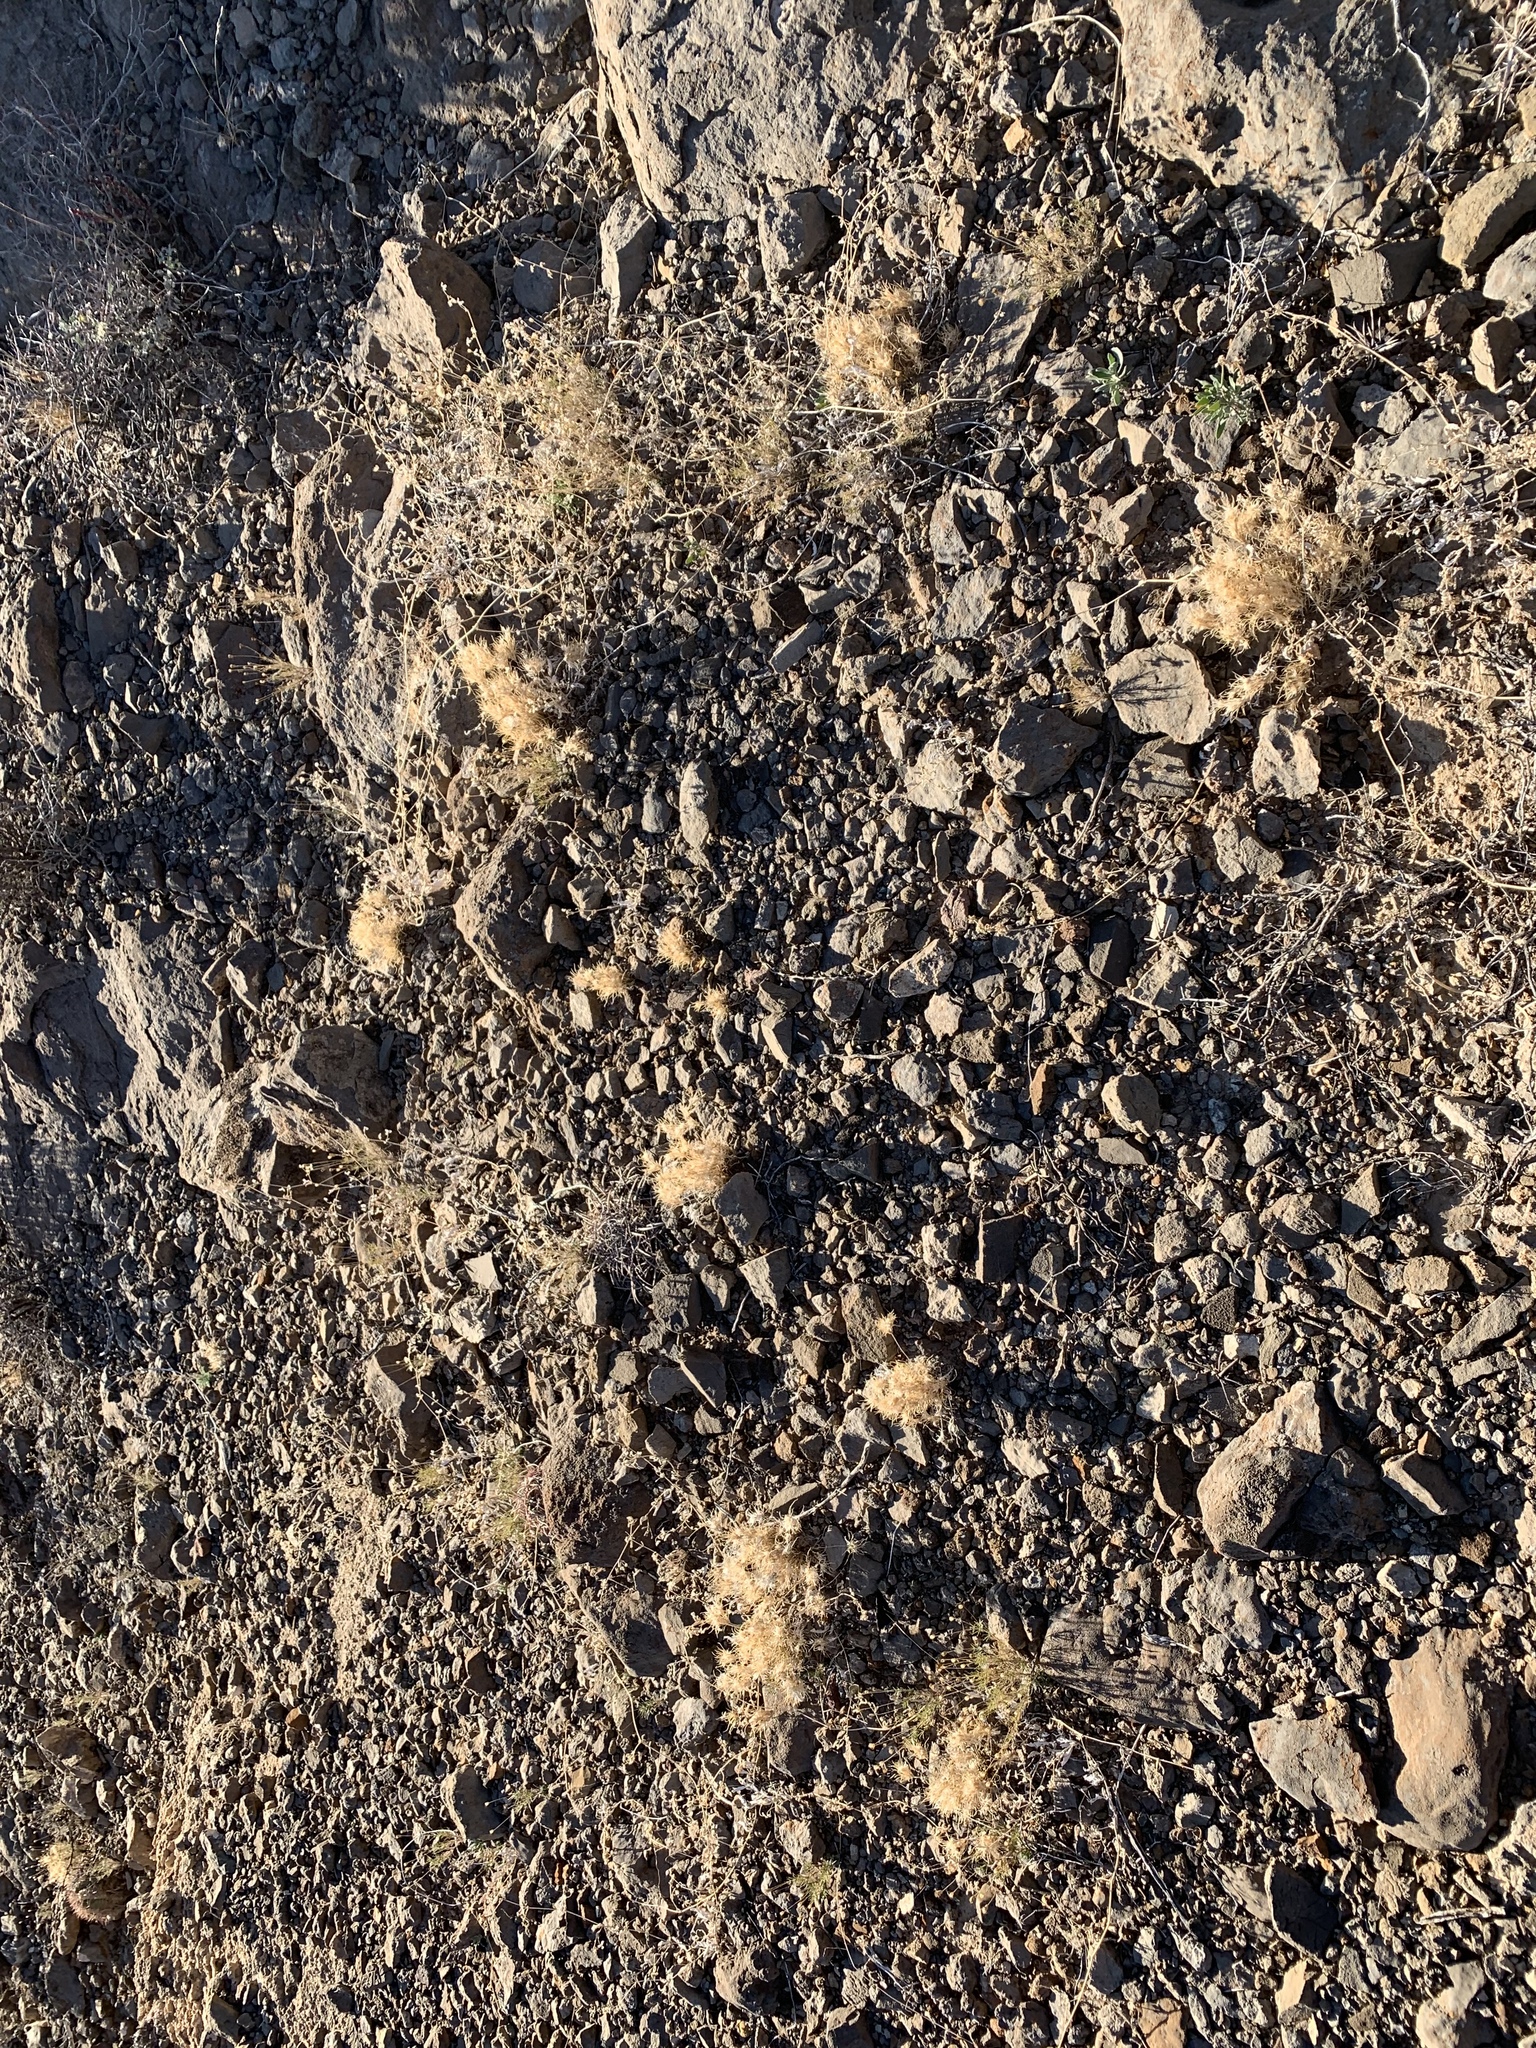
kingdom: Plantae
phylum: Tracheophyta
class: Liliopsida
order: Poales
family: Poaceae
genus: Dasyochloa
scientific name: Dasyochloa pulchella
